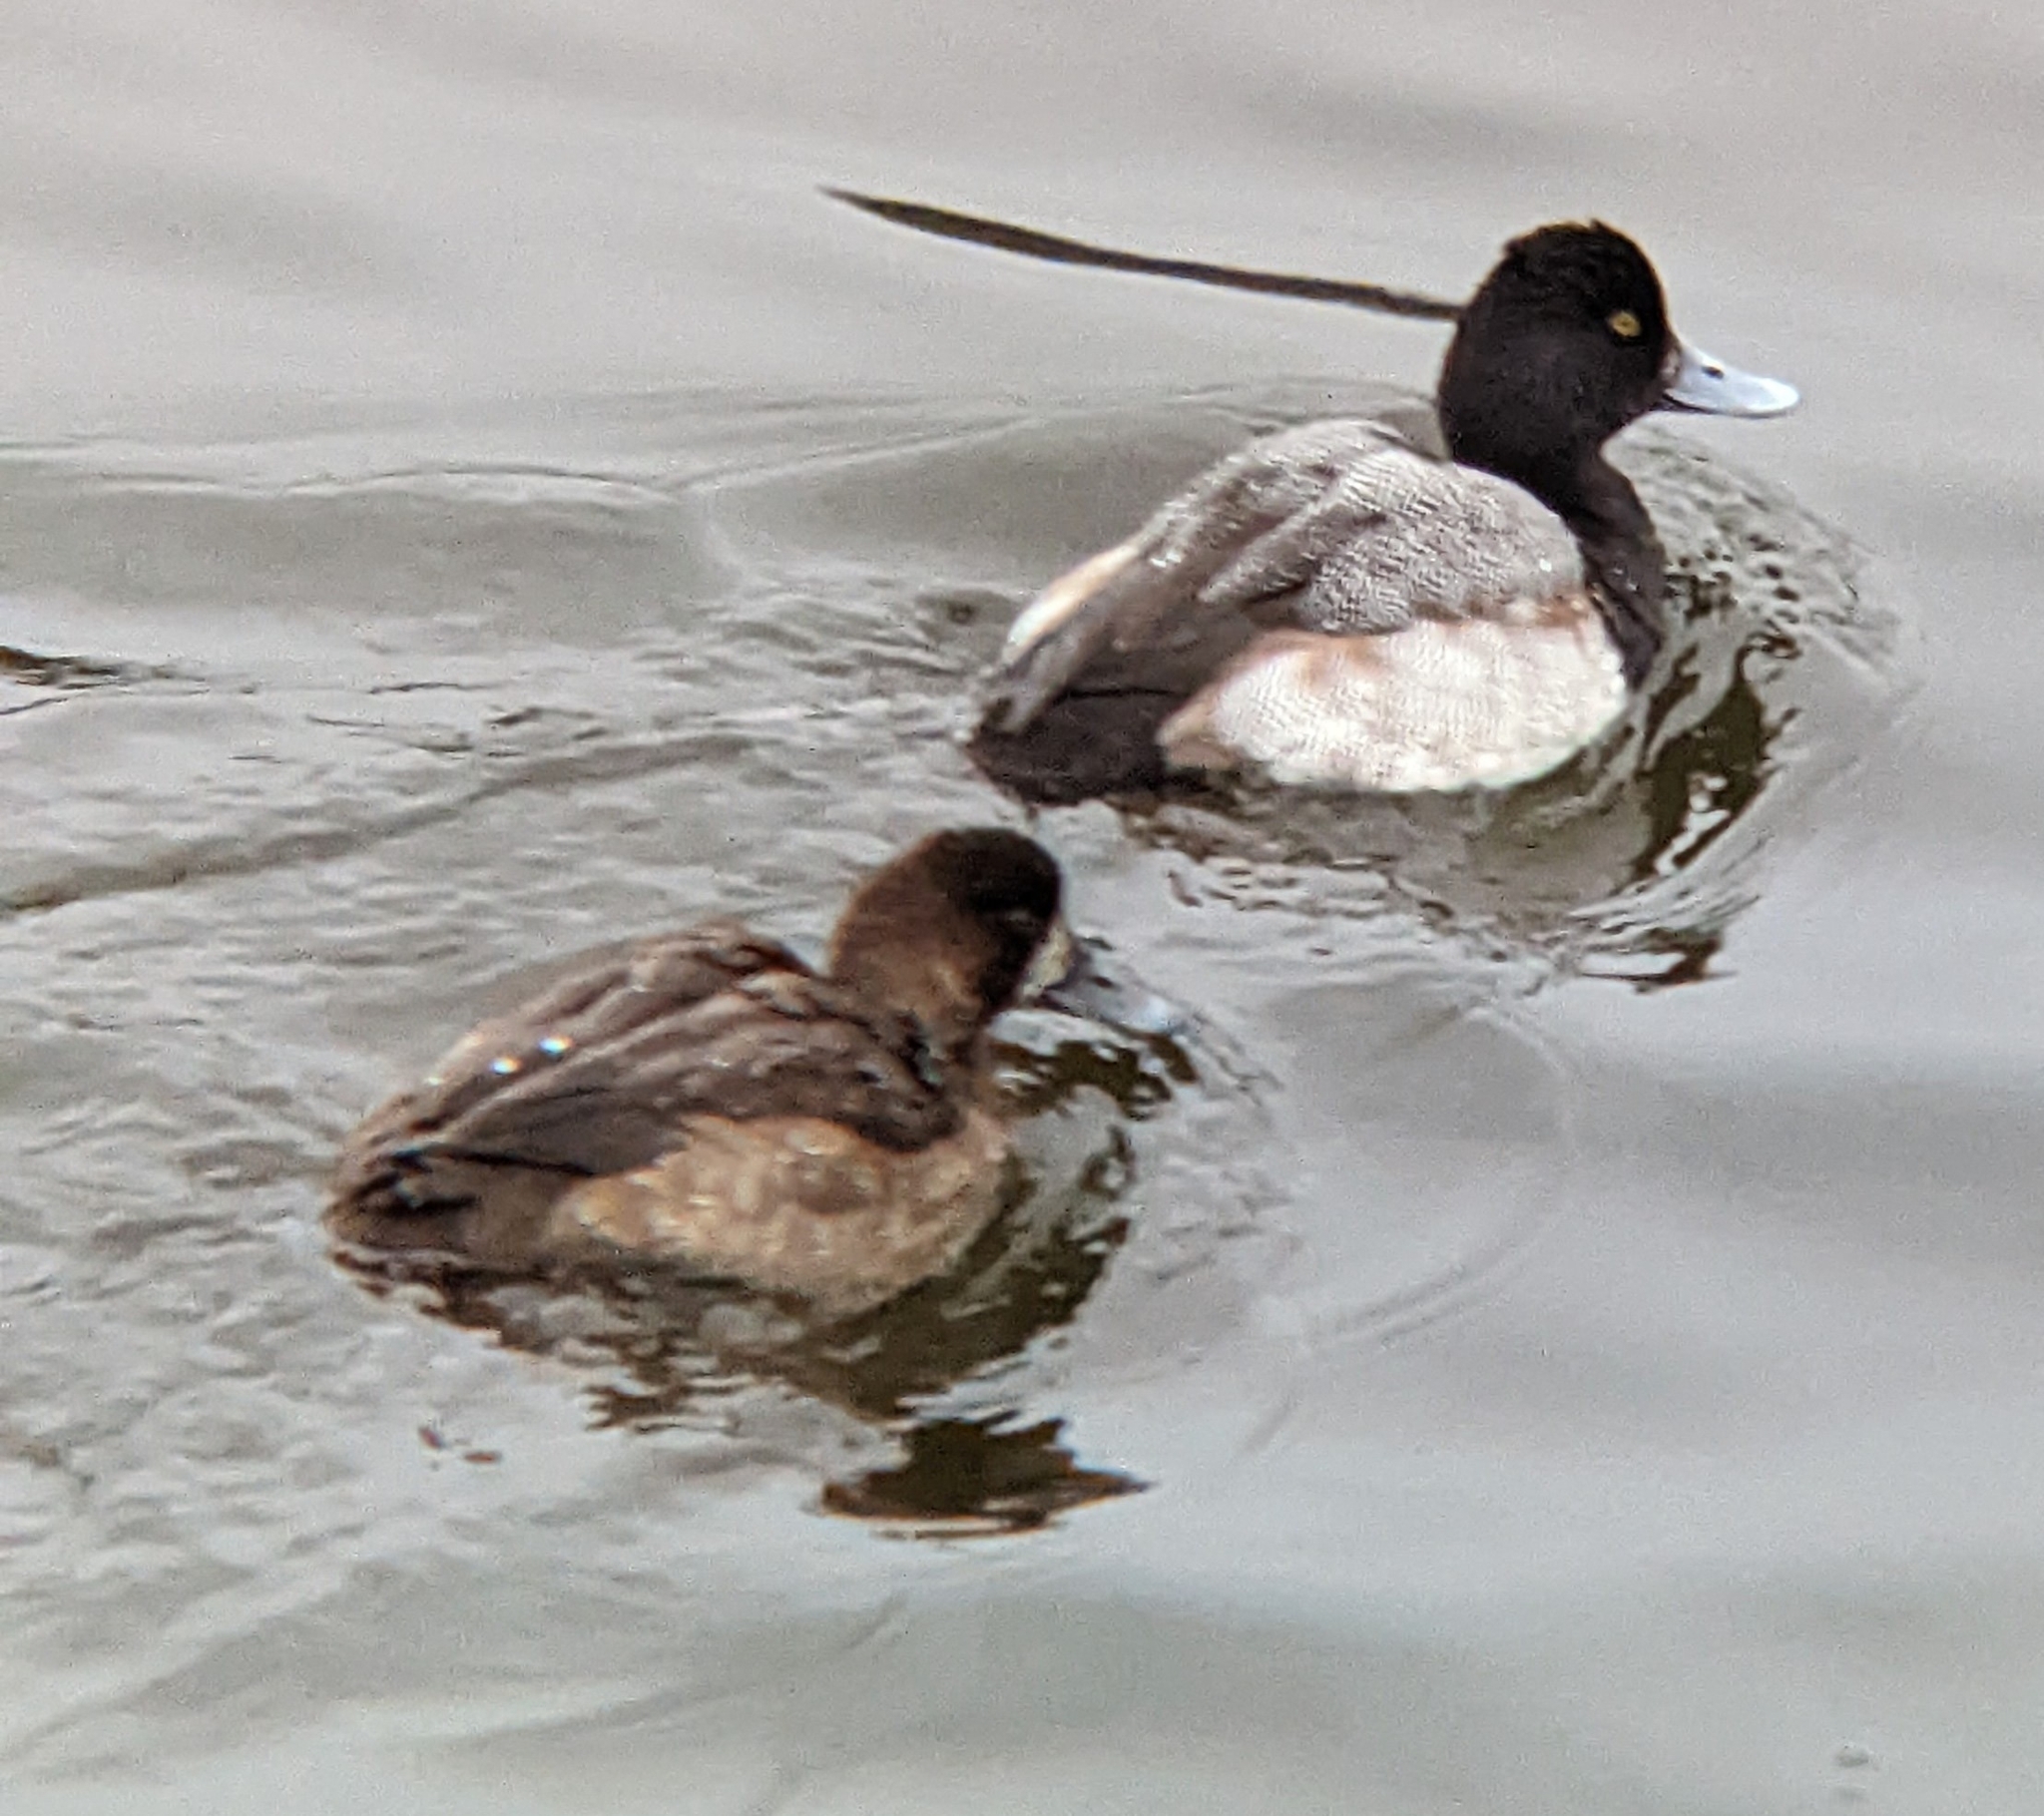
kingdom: Animalia
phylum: Chordata
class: Aves
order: Anseriformes
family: Anatidae
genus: Aythya
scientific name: Aythya affinis
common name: Lesser scaup
